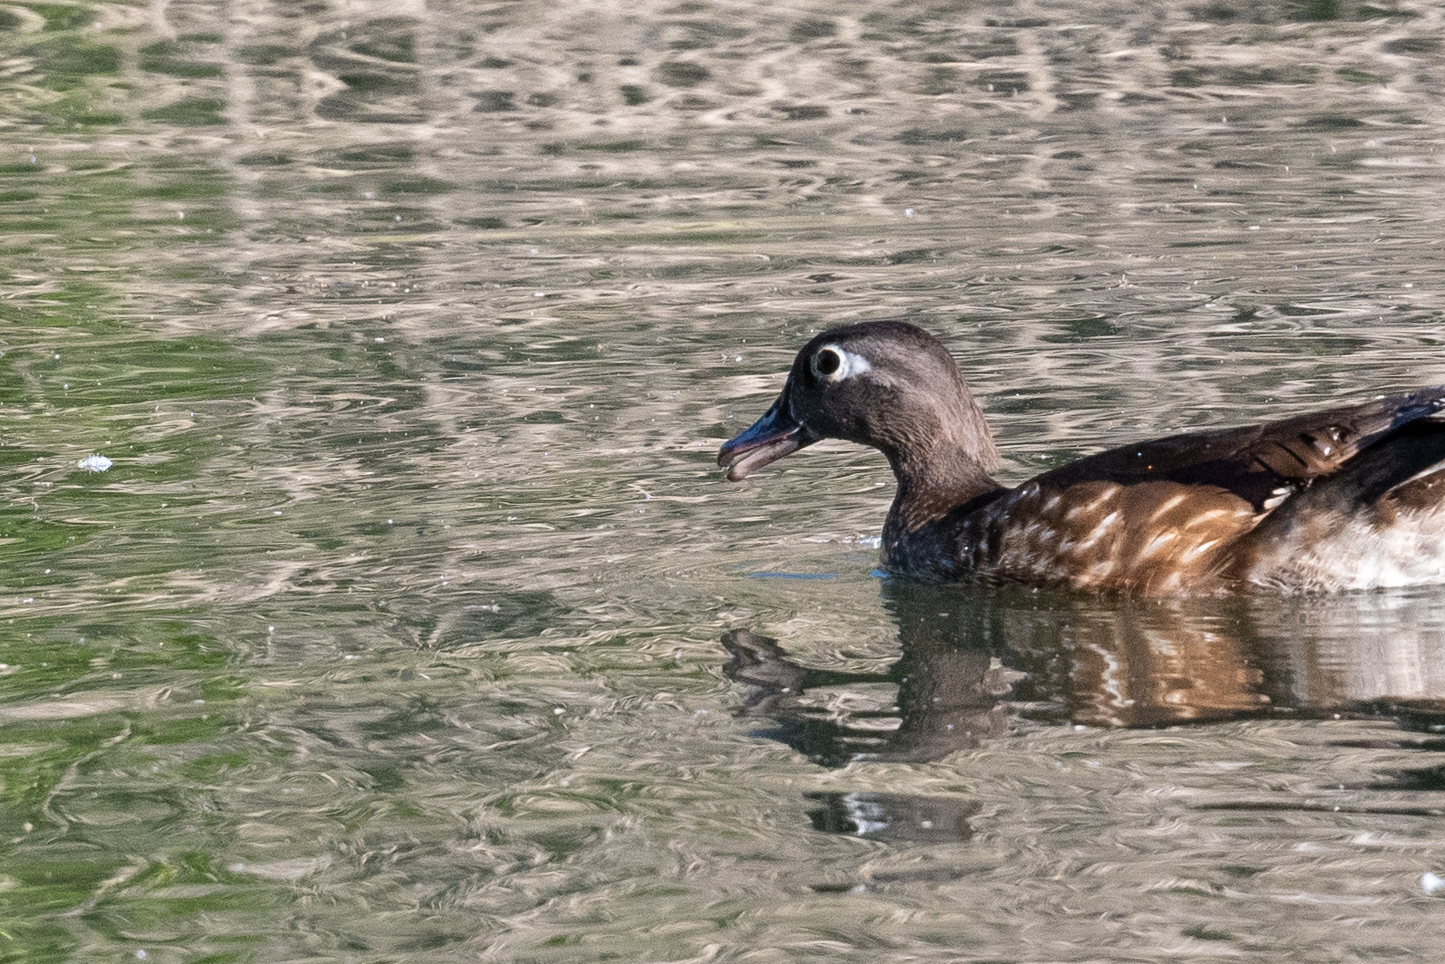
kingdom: Animalia
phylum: Chordata
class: Aves
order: Anseriformes
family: Anatidae
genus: Aix
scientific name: Aix sponsa
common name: Wood duck
